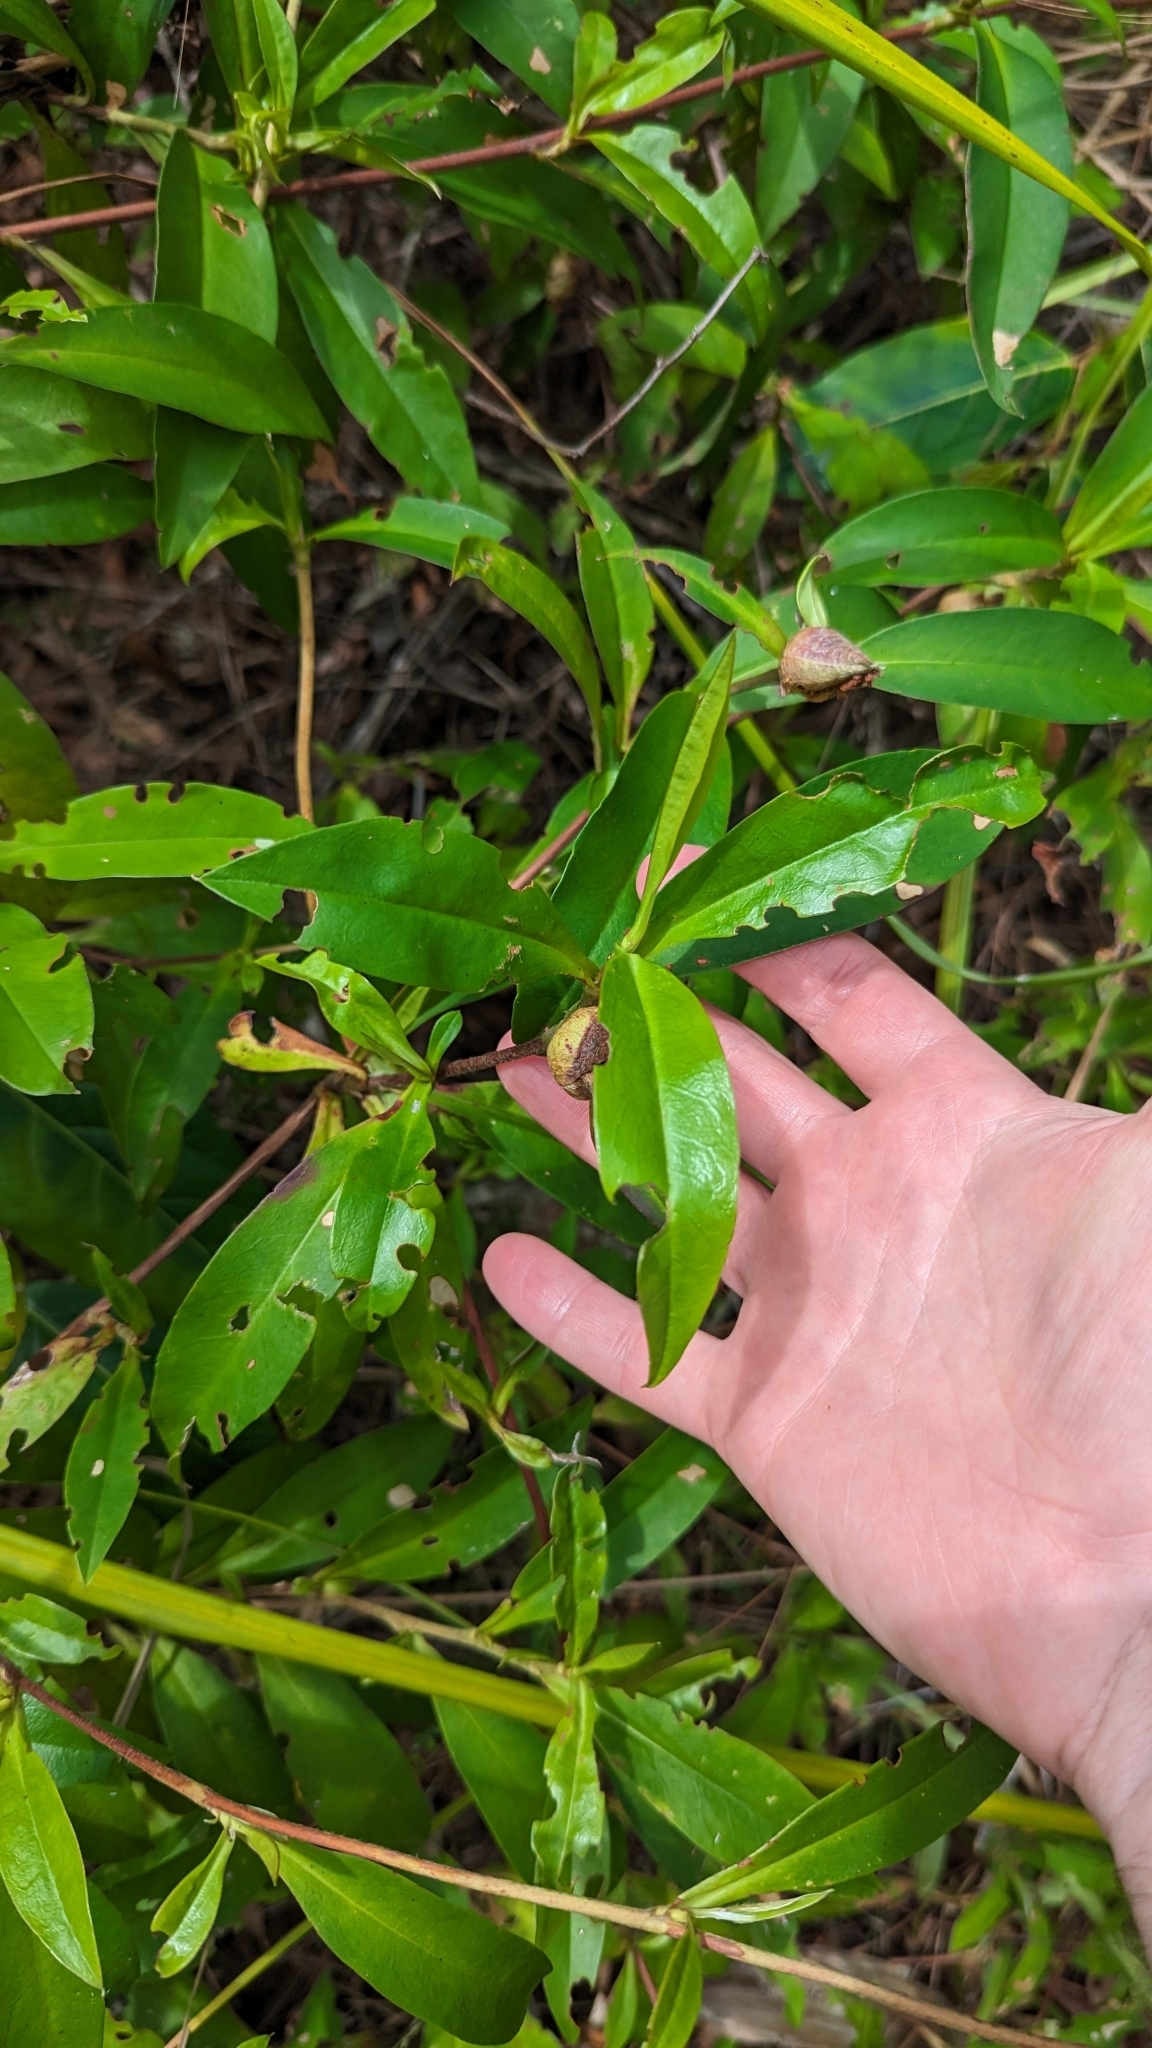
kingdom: Plantae
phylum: Tracheophyta
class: Magnoliopsida
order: Dilleniales
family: Dilleniaceae
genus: Hibbertia
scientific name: Hibbertia scandens
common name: Climbing guinea-flower
